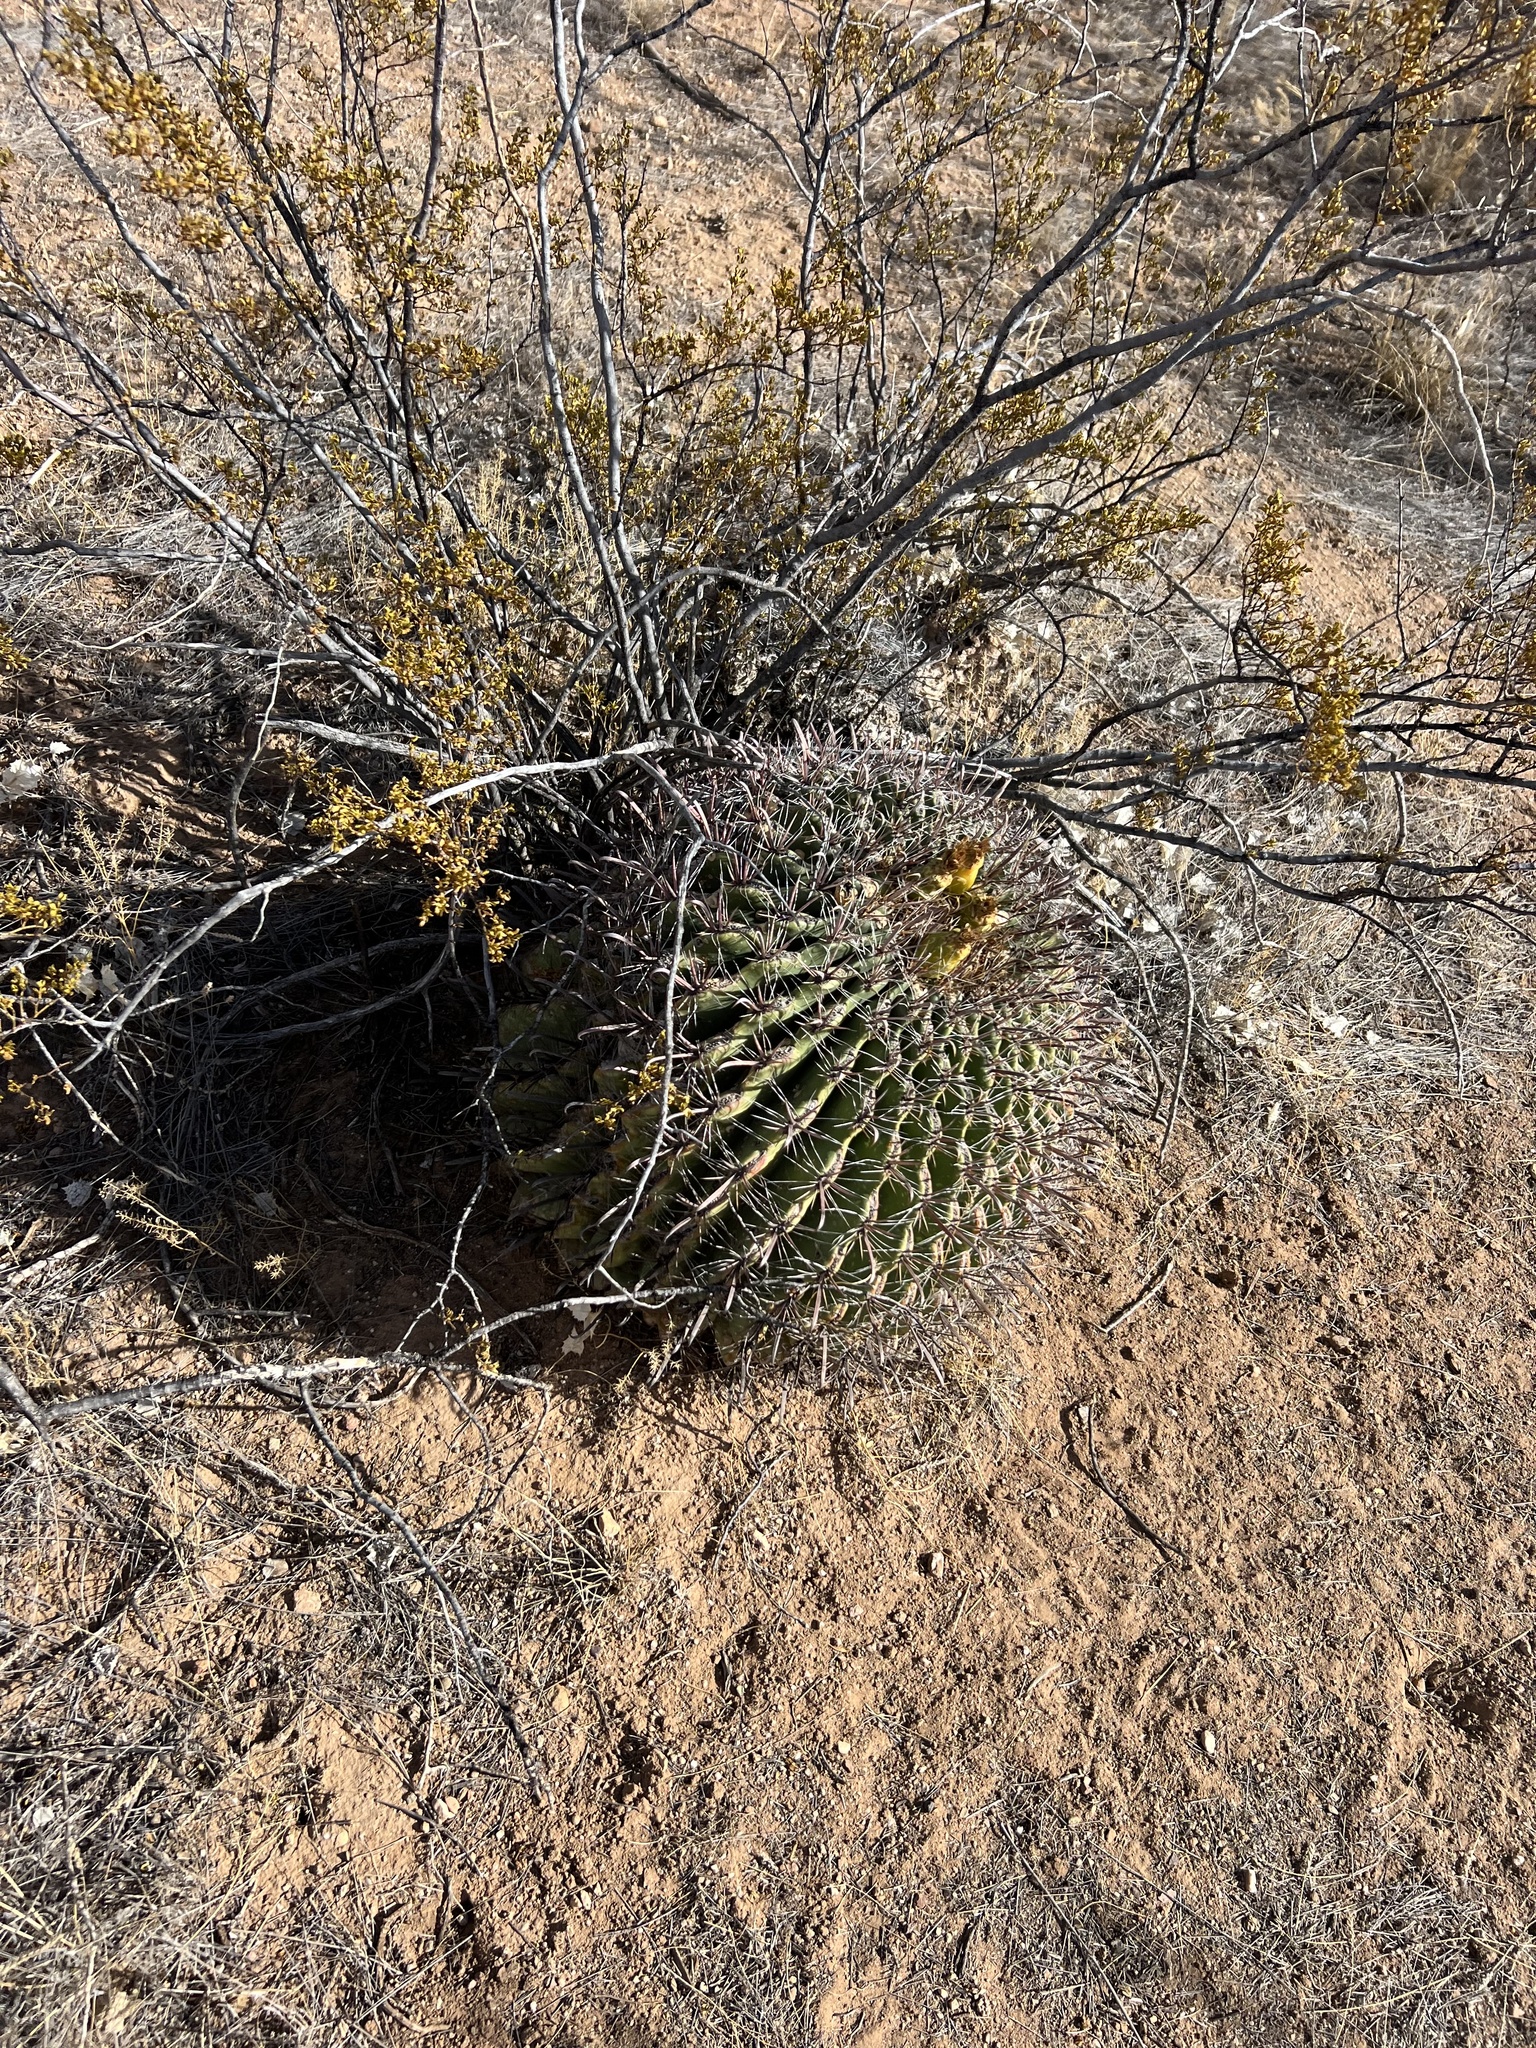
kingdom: Plantae
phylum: Tracheophyta
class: Magnoliopsida
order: Caryophyllales
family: Cactaceae
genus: Ferocactus
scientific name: Ferocactus wislizeni
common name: Candy barrel cactus
